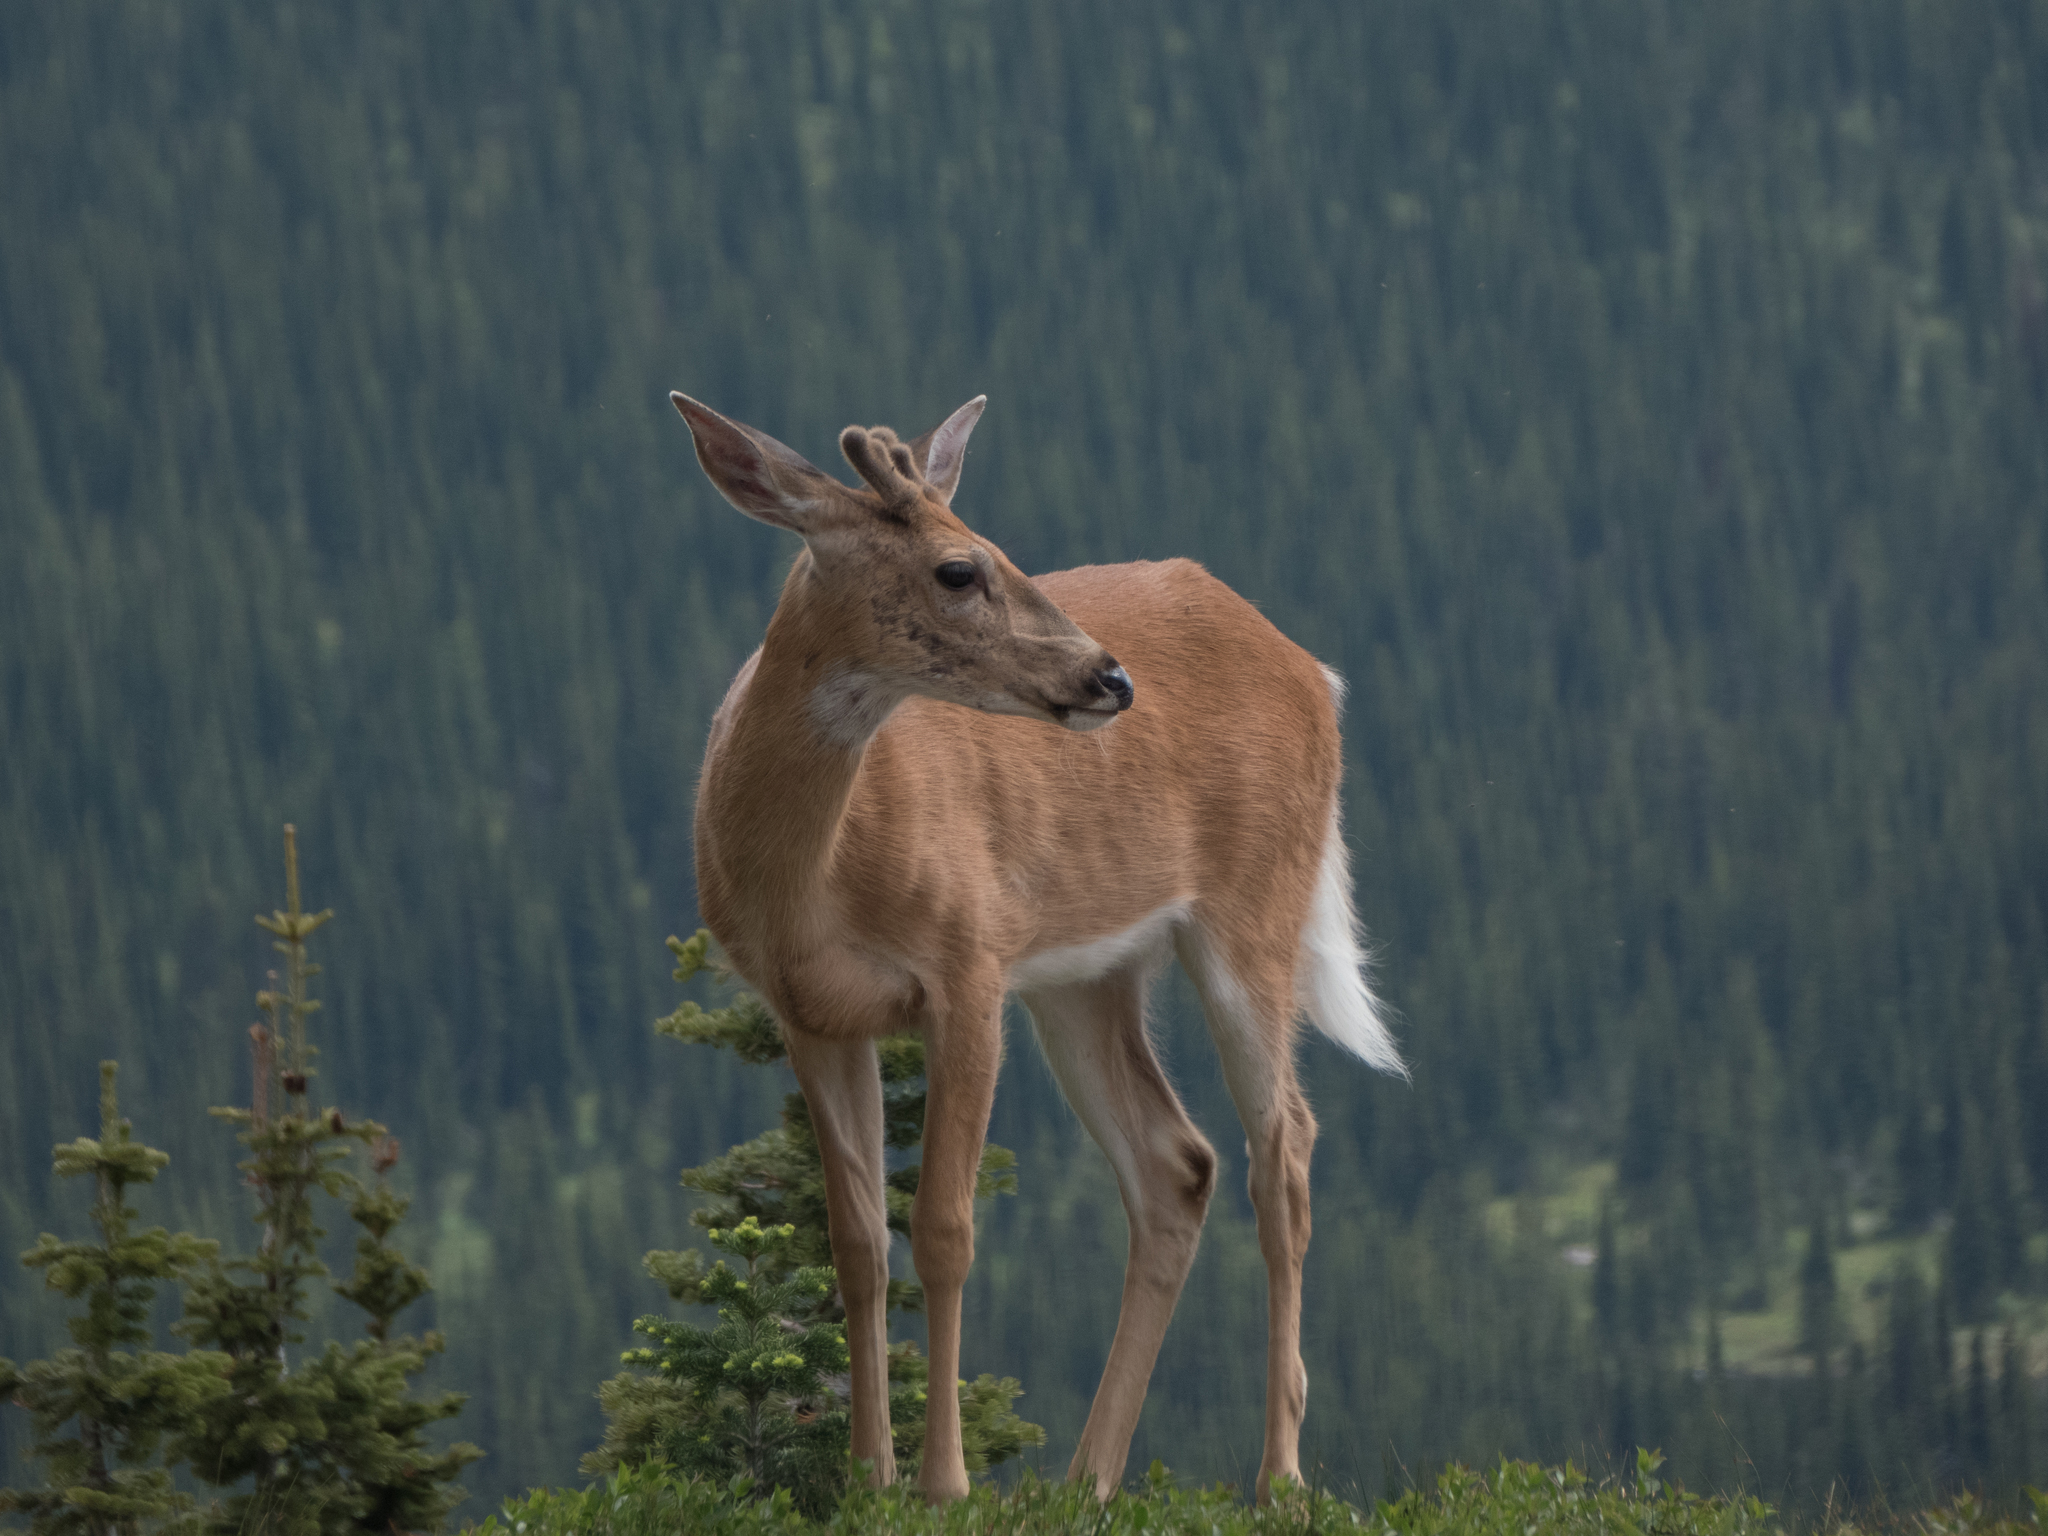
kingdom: Animalia
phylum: Chordata
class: Mammalia
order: Artiodactyla
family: Cervidae
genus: Odocoileus
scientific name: Odocoileus virginianus
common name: White-tailed deer
